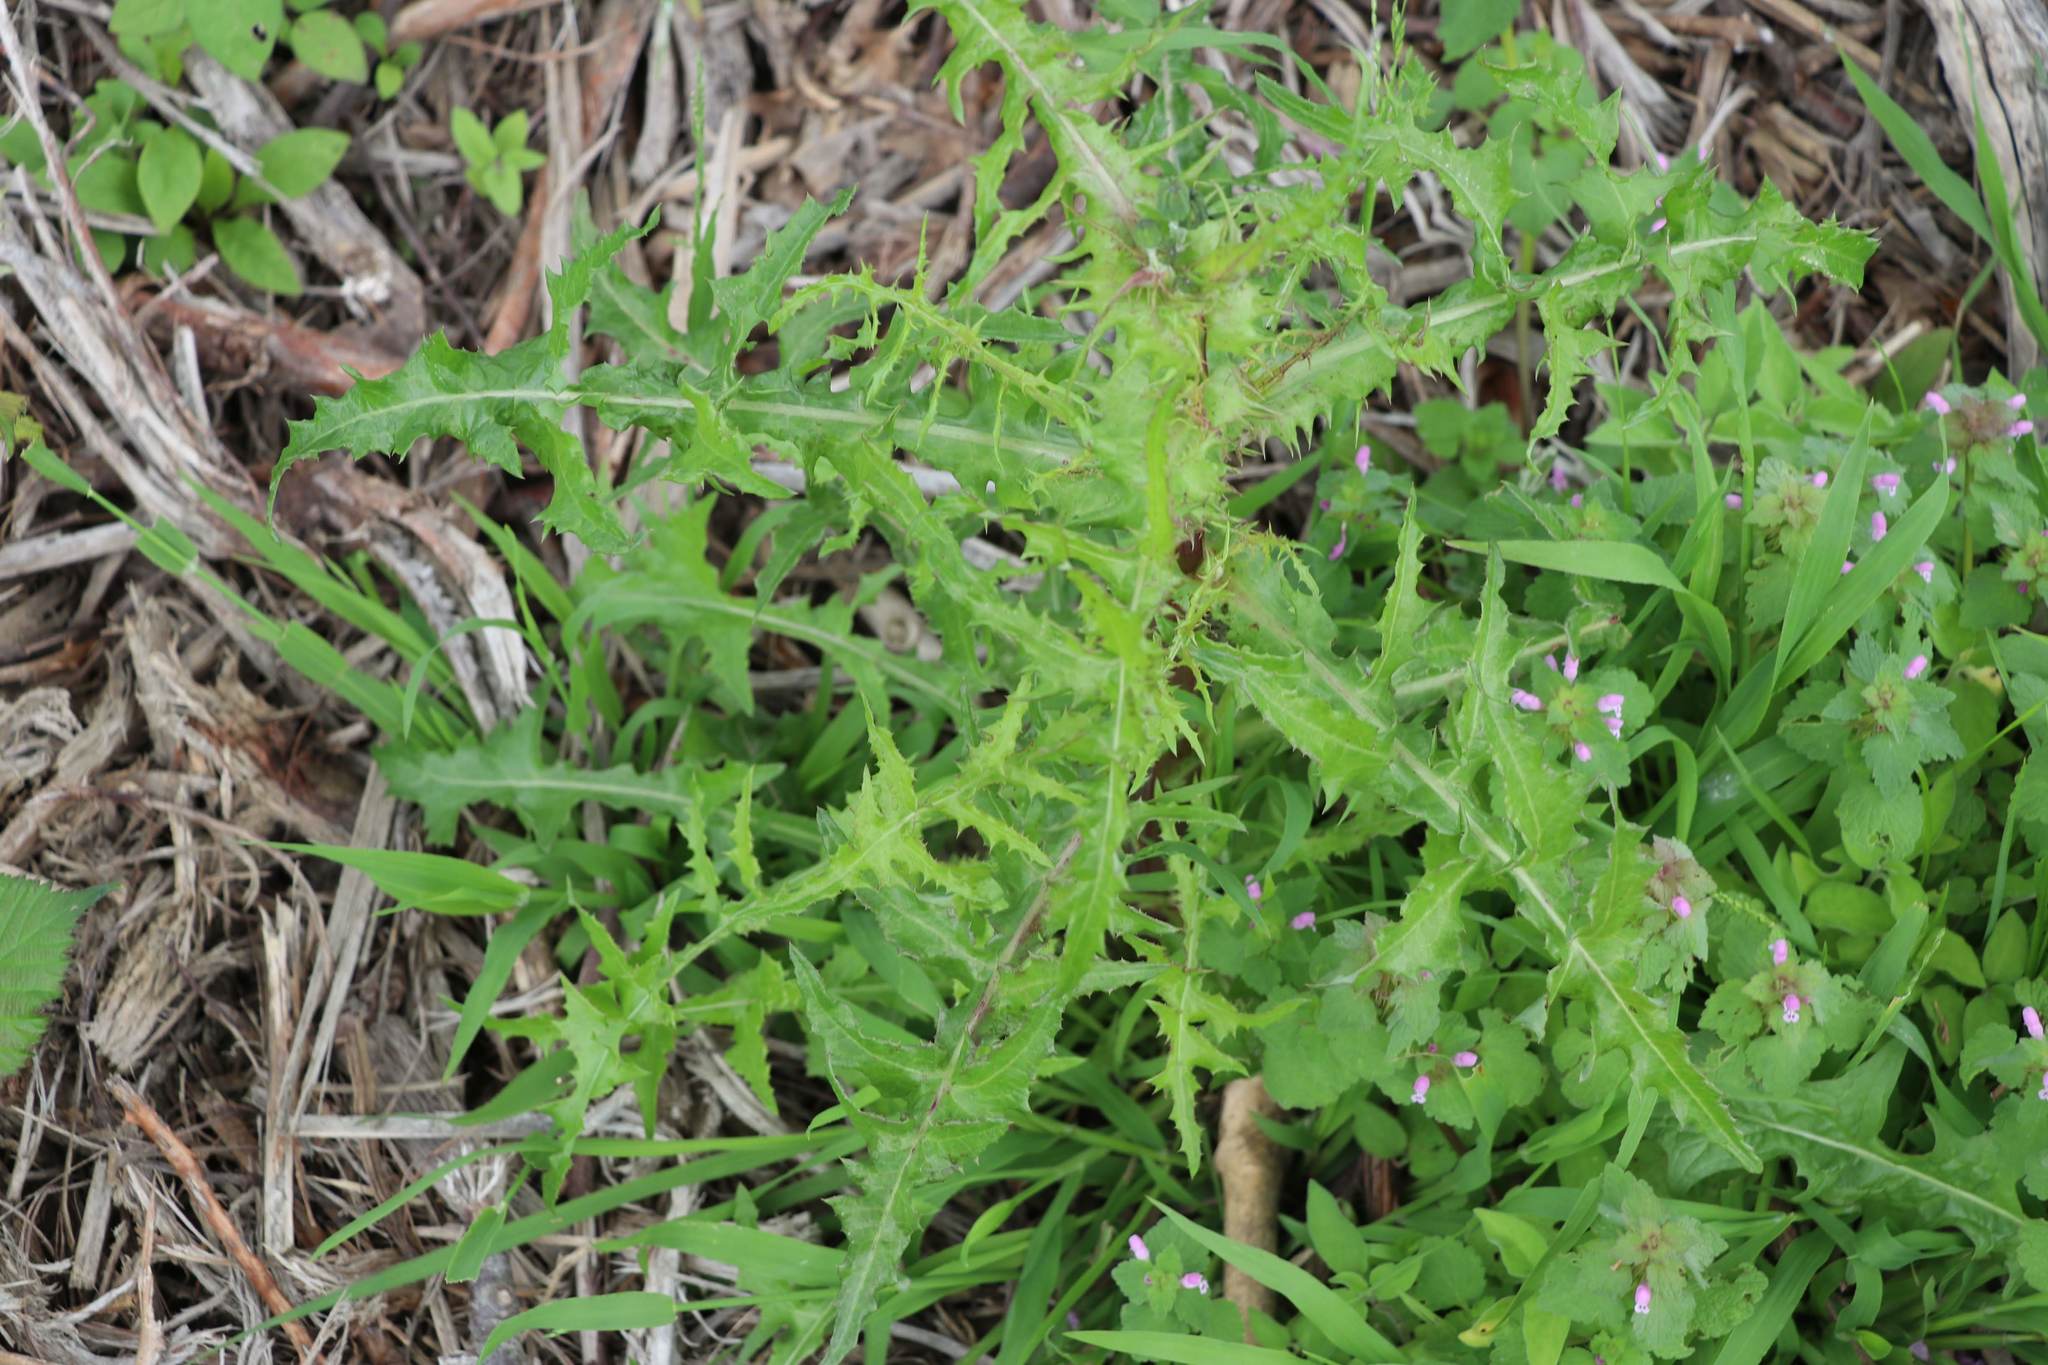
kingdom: Plantae
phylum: Tracheophyta
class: Magnoliopsida
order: Asterales
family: Asteraceae
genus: Sonchus
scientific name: Sonchus asper
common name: Prickly sow-thistle
